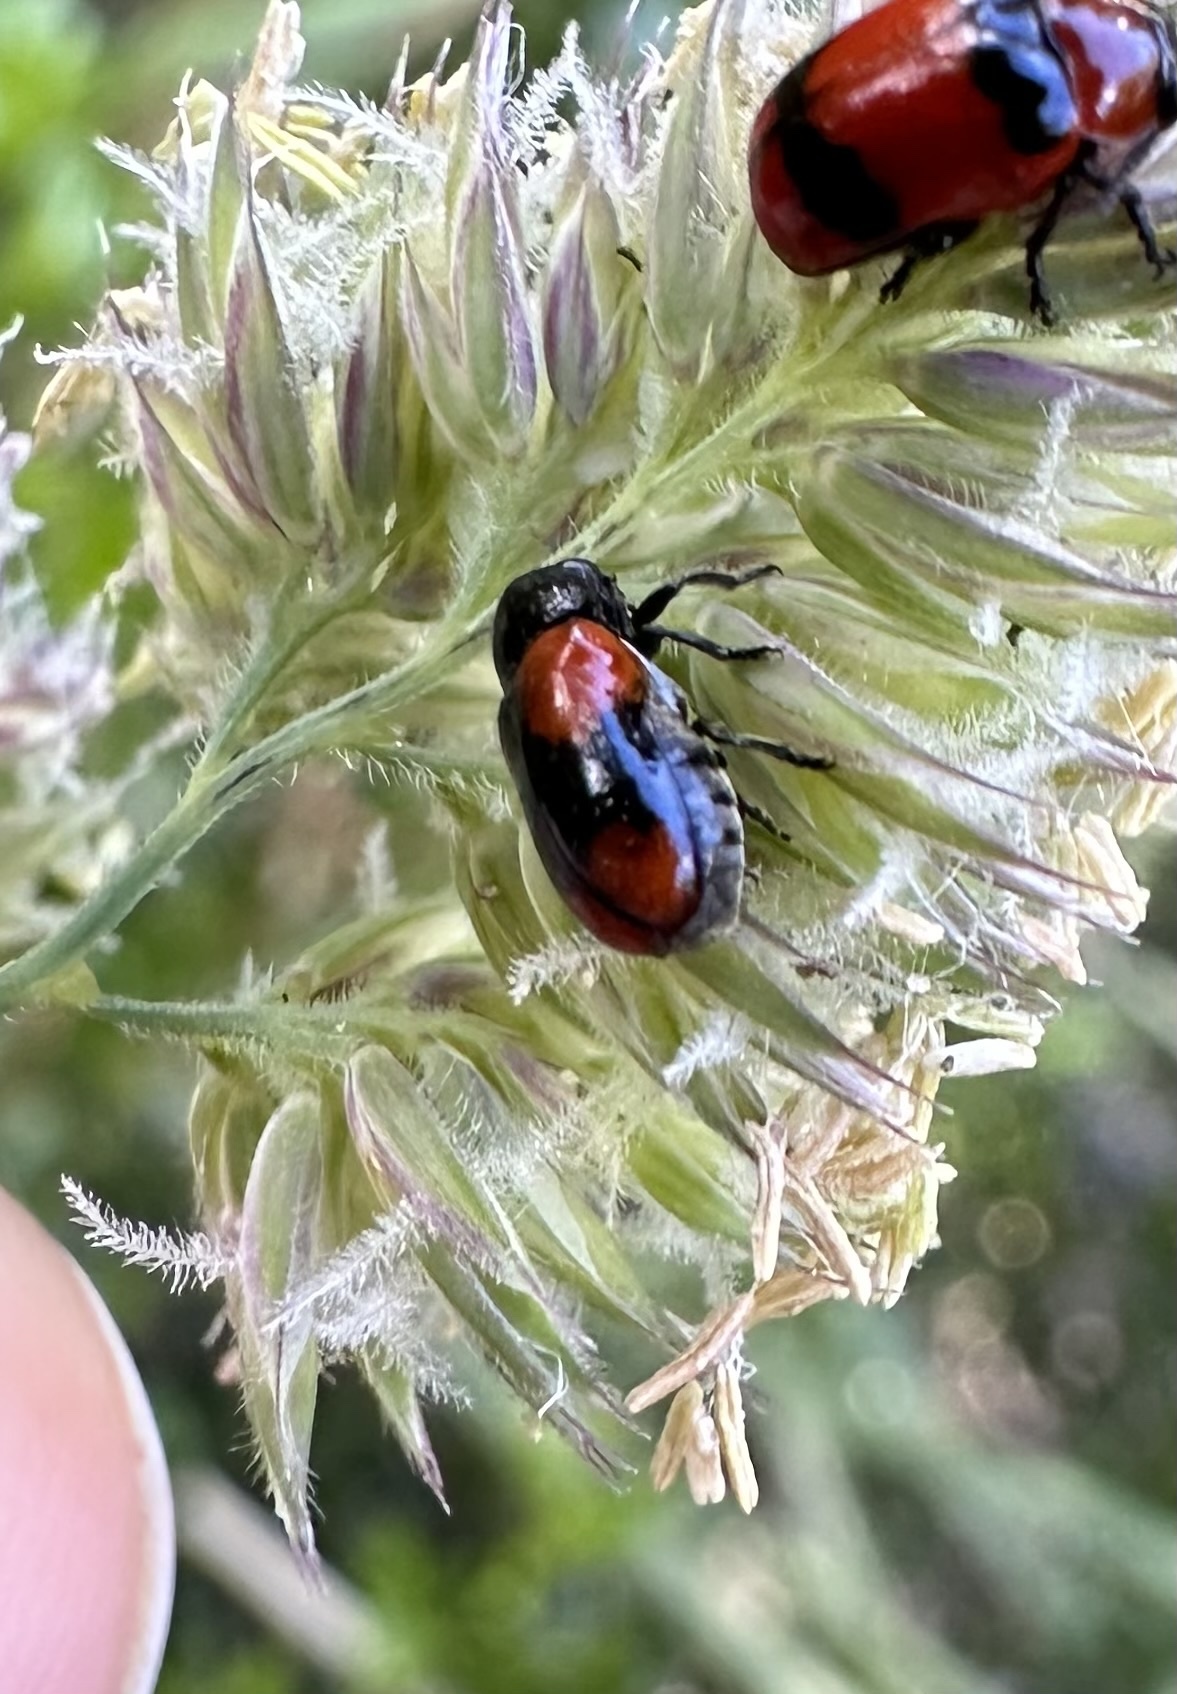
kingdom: Animalia
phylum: Arthropoda
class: Insecta
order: Coleoptera
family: Chrysomelidae
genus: Temnodachrys
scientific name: Temnodachrys
